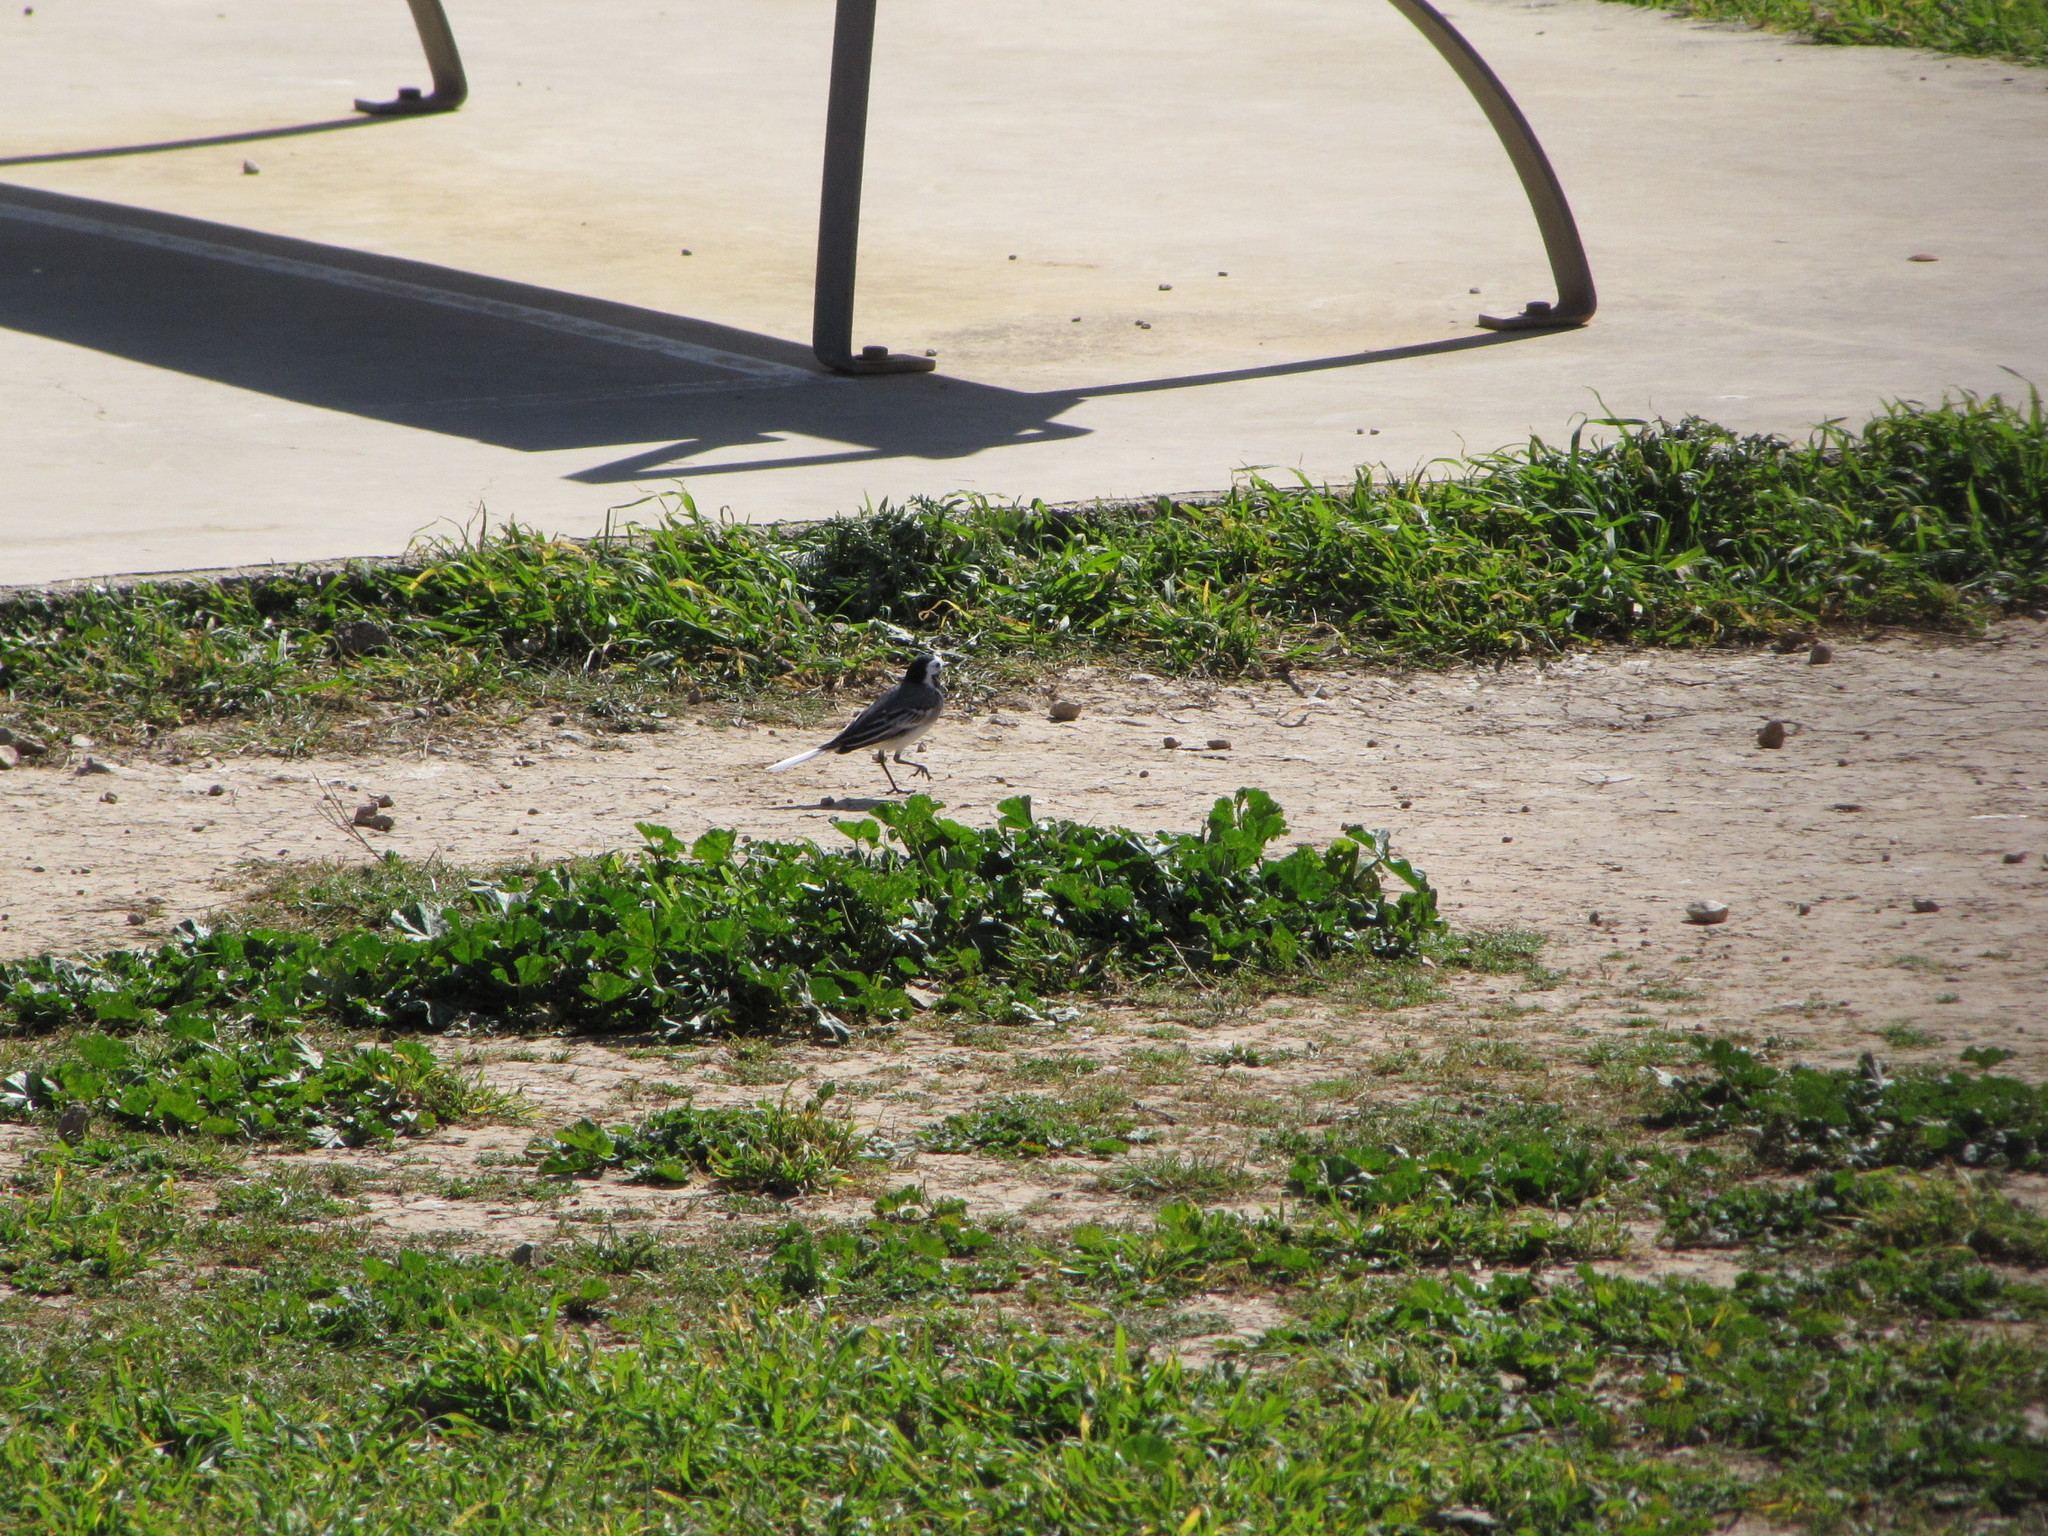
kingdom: Animalia
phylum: Chordata
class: Aves
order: Passeriformes
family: Motacillidae
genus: Motacilla
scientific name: Motacilla alba
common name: White wagtail
